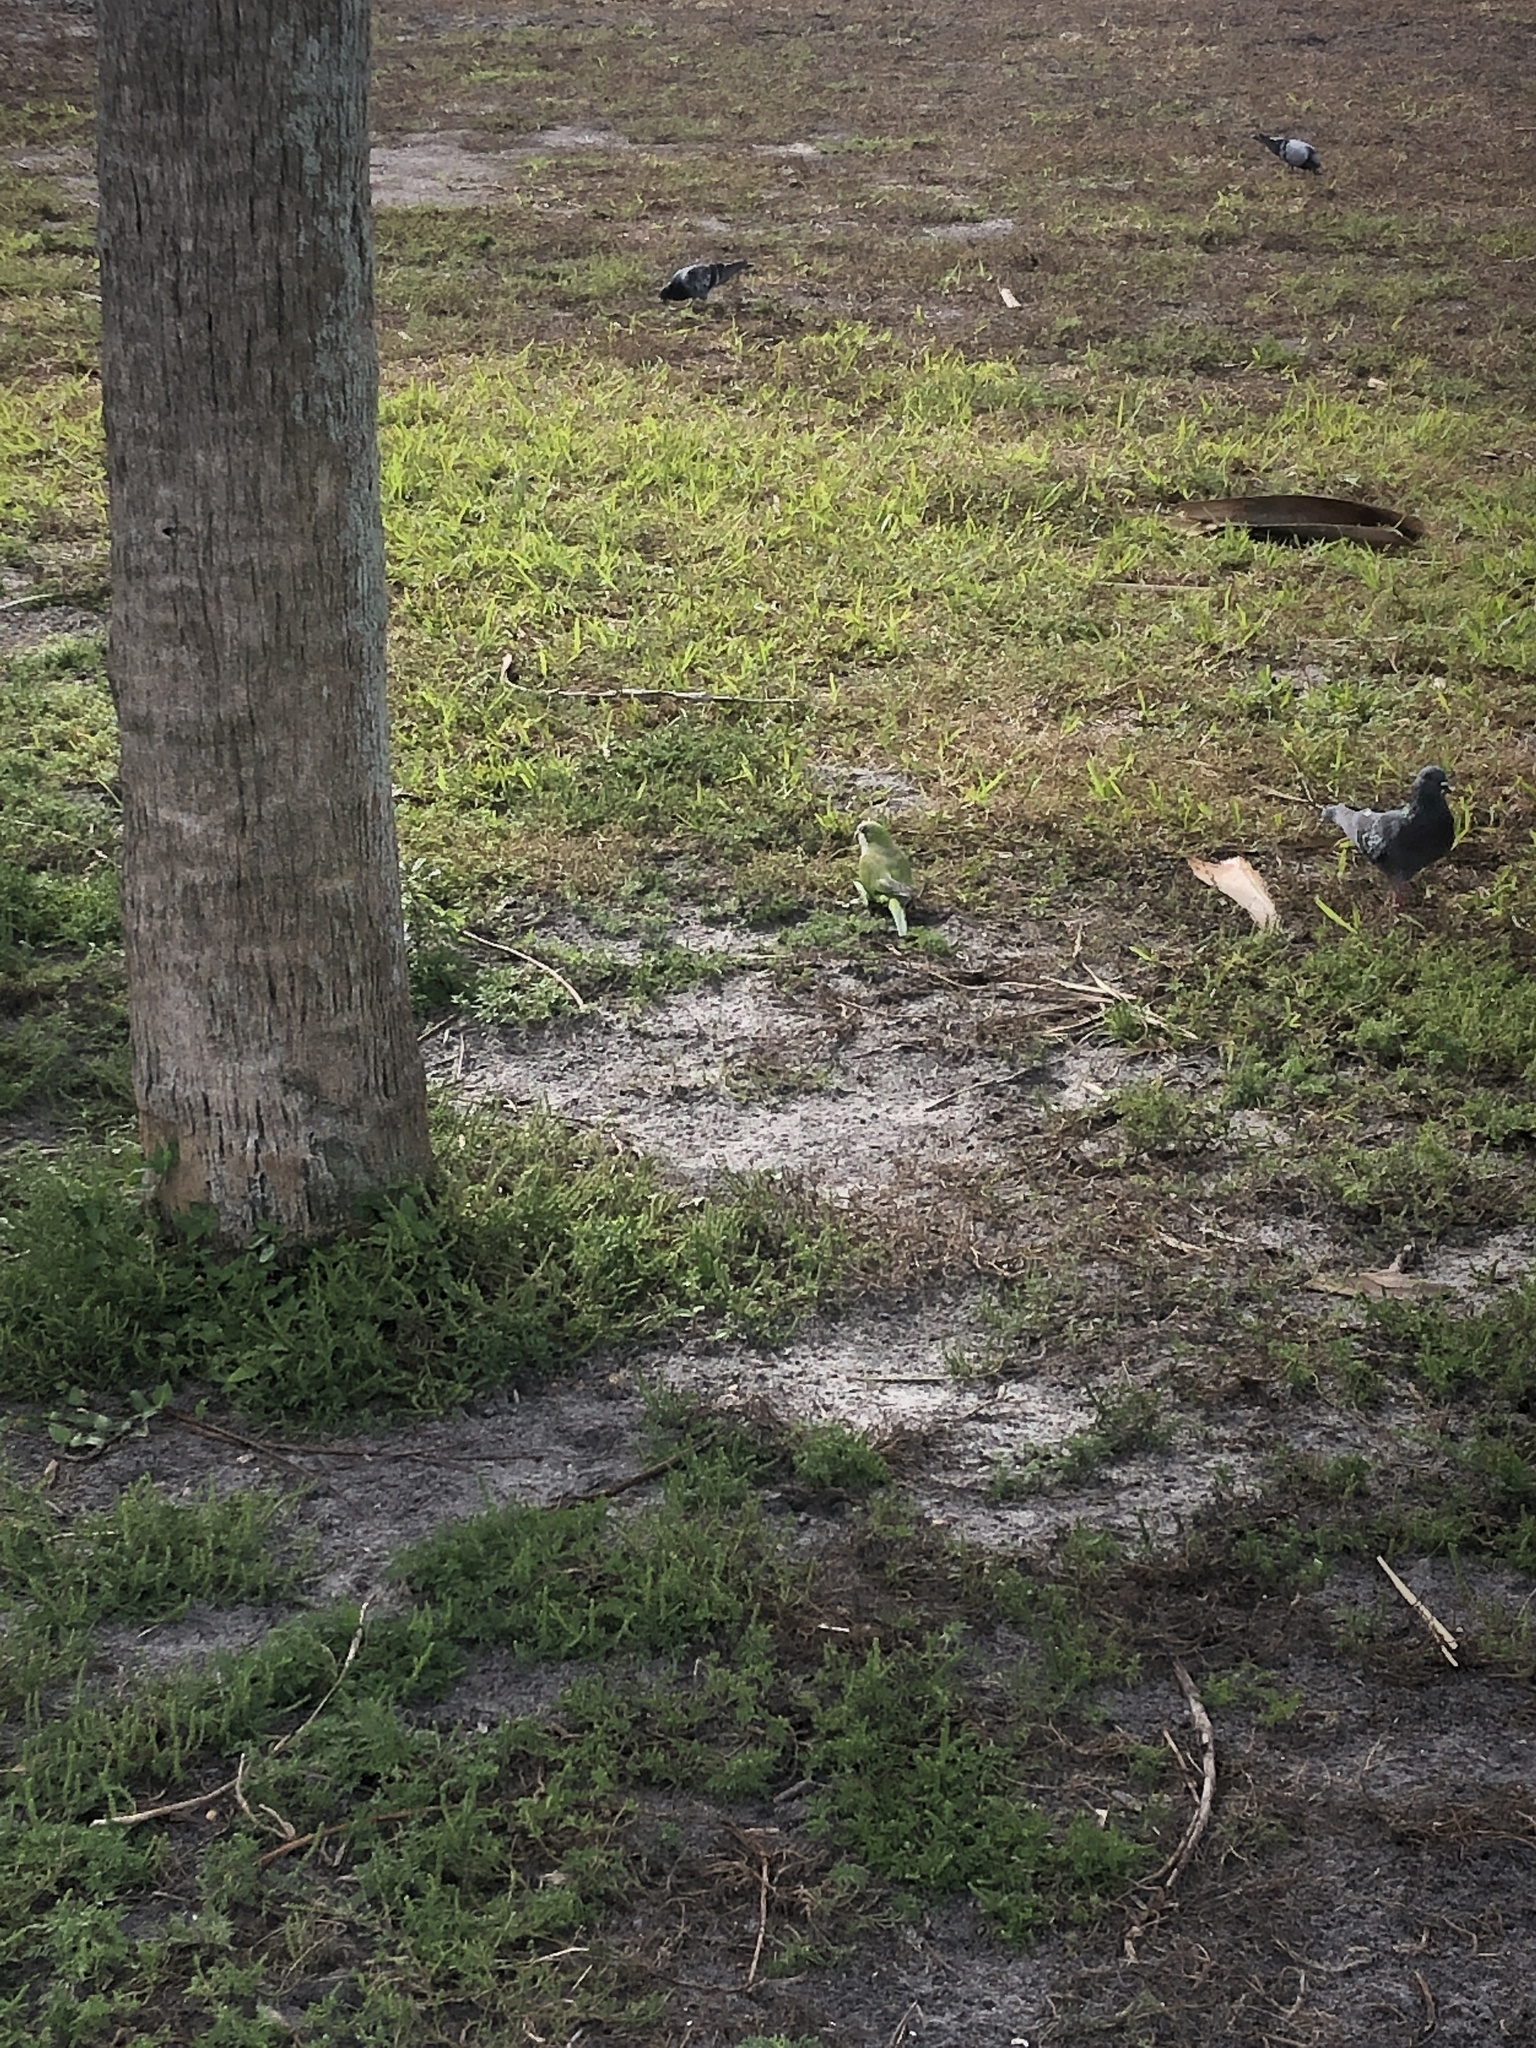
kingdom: Animalia
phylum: Chordata
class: Aves
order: Psittaciformes
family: Psittacidae
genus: Myiopsitta
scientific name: Myiopsitta monachus
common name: Monk parakeet
